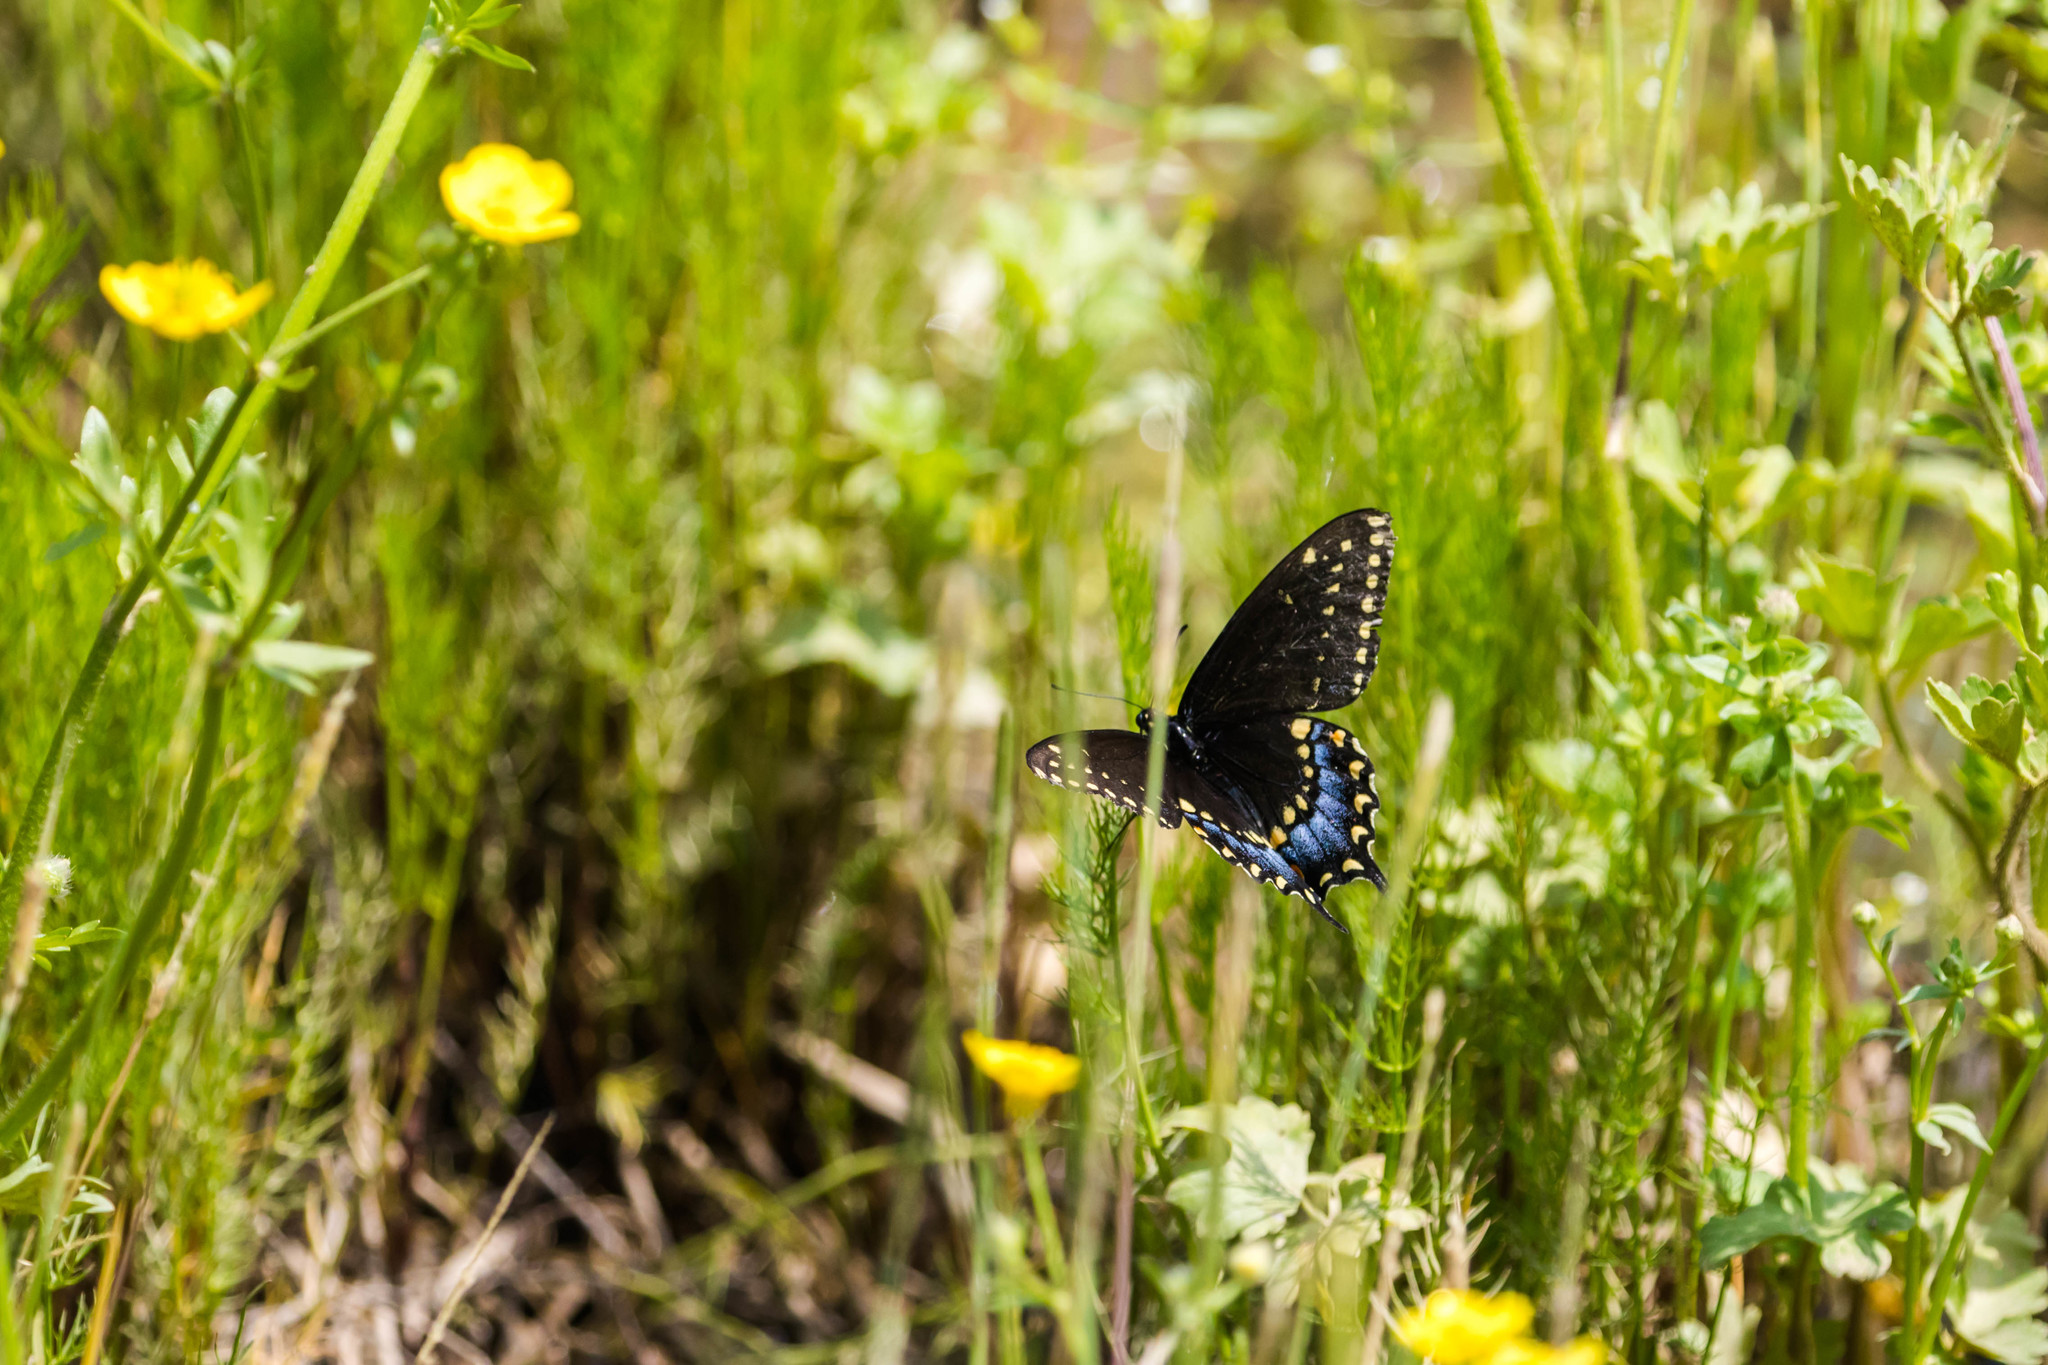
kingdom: Animalia
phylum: Arthropoda
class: Insecta
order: Lepidoptera
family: Papilionidae
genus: Papilio
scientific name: Papilio polyxenes
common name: Black swallowtail
